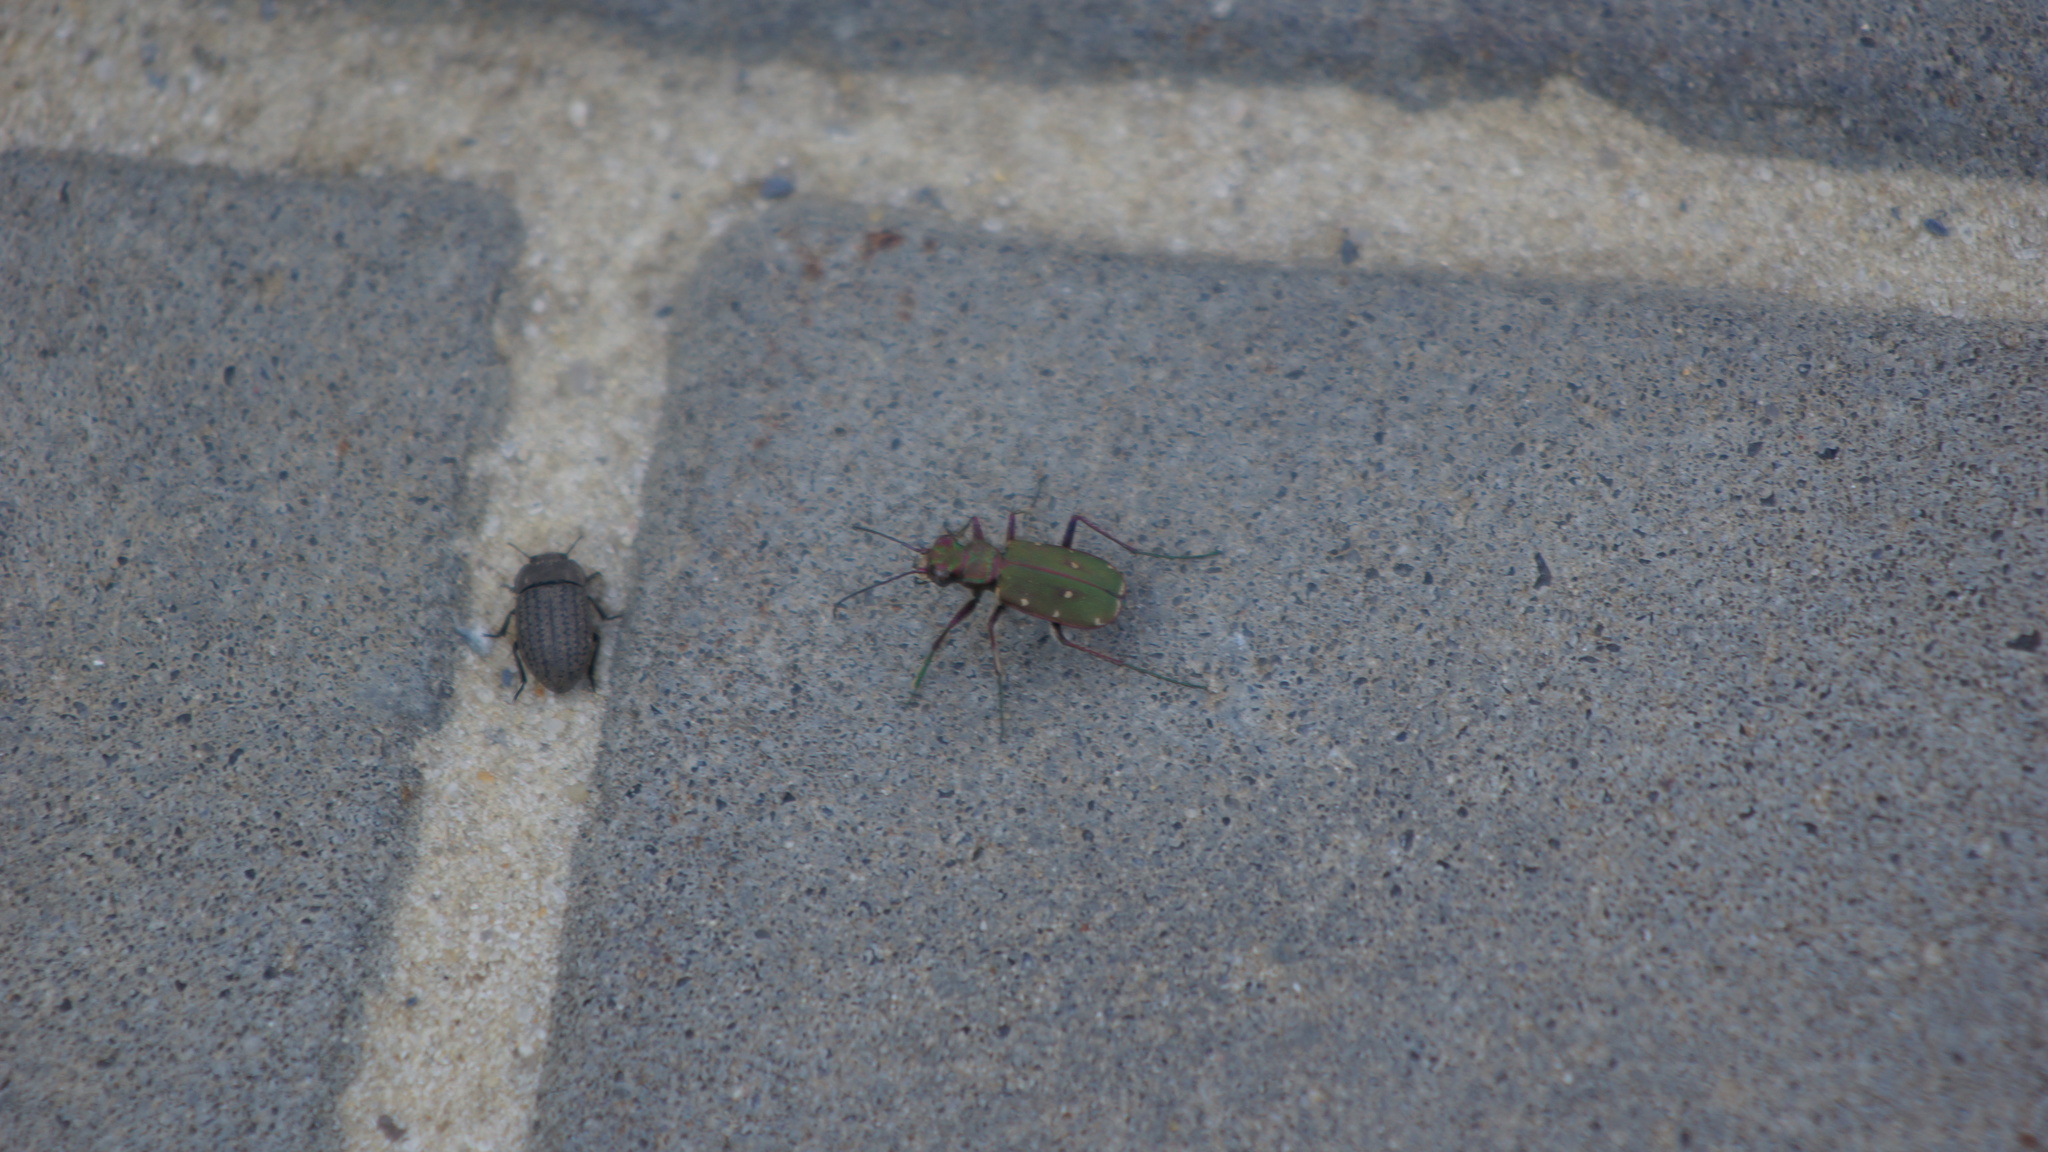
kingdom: Animalia
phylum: Arthropoda
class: Insecta
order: Coleoptera
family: Carabidae
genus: Cicindela
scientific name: Cicindela campestris
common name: Common tiger beetle
